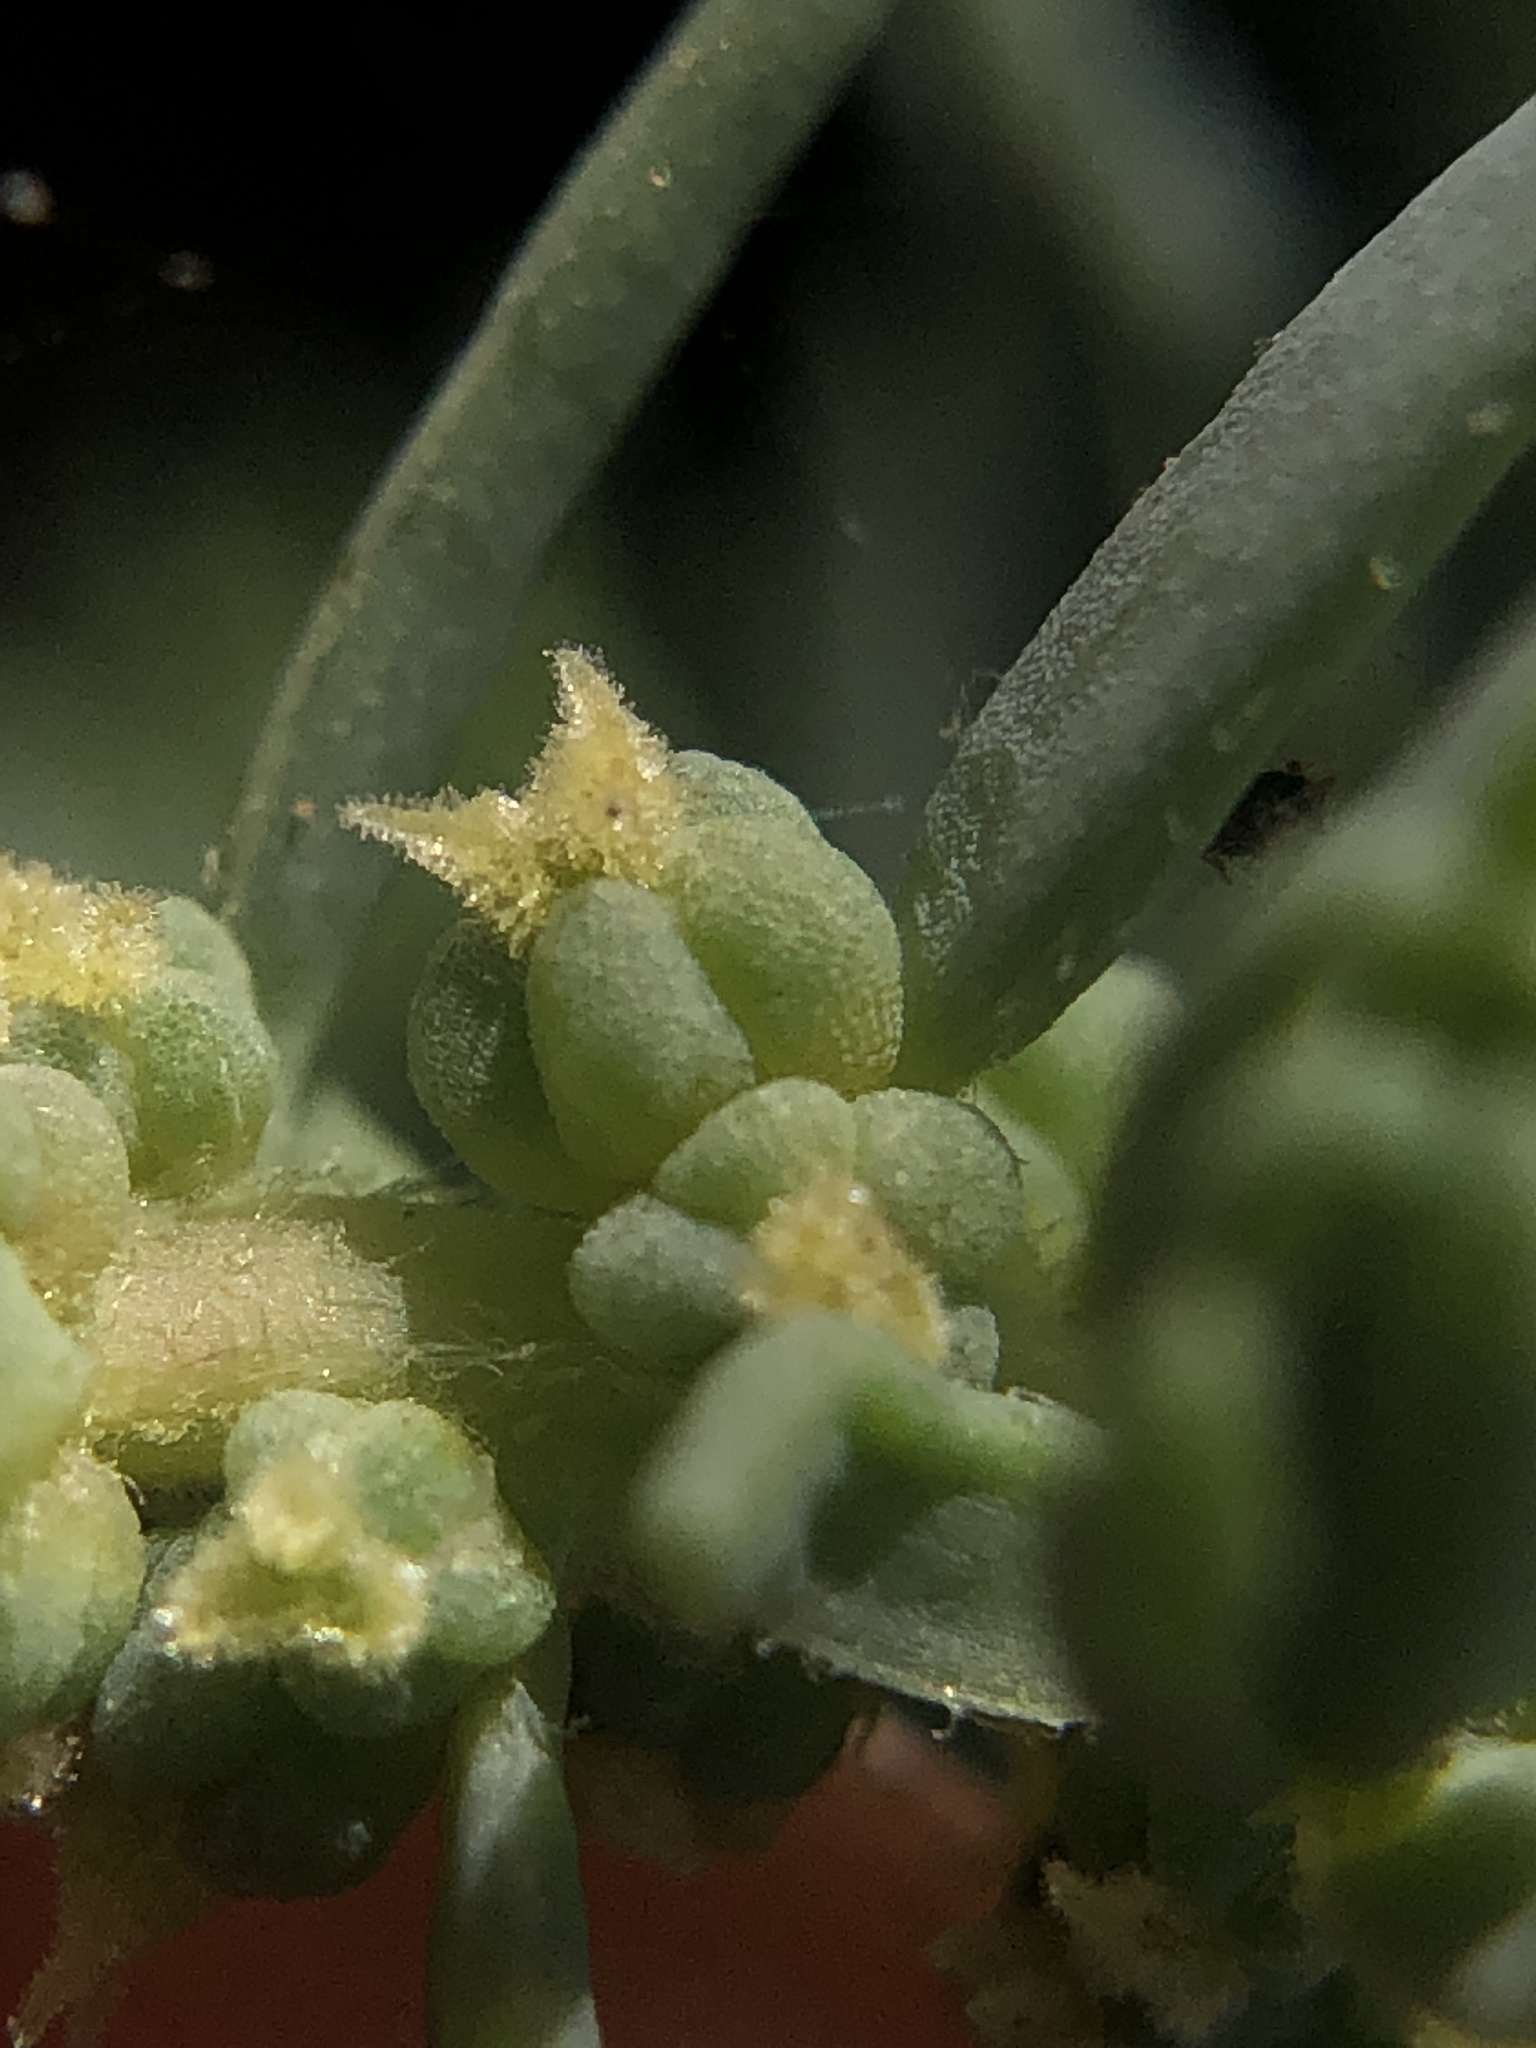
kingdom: Plantae
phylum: Tracheophyta
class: Magnoliopsida
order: Caryophyllales
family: Amaranthaceae
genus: Suaeda
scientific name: Suaeda californica
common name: California sea-blite
